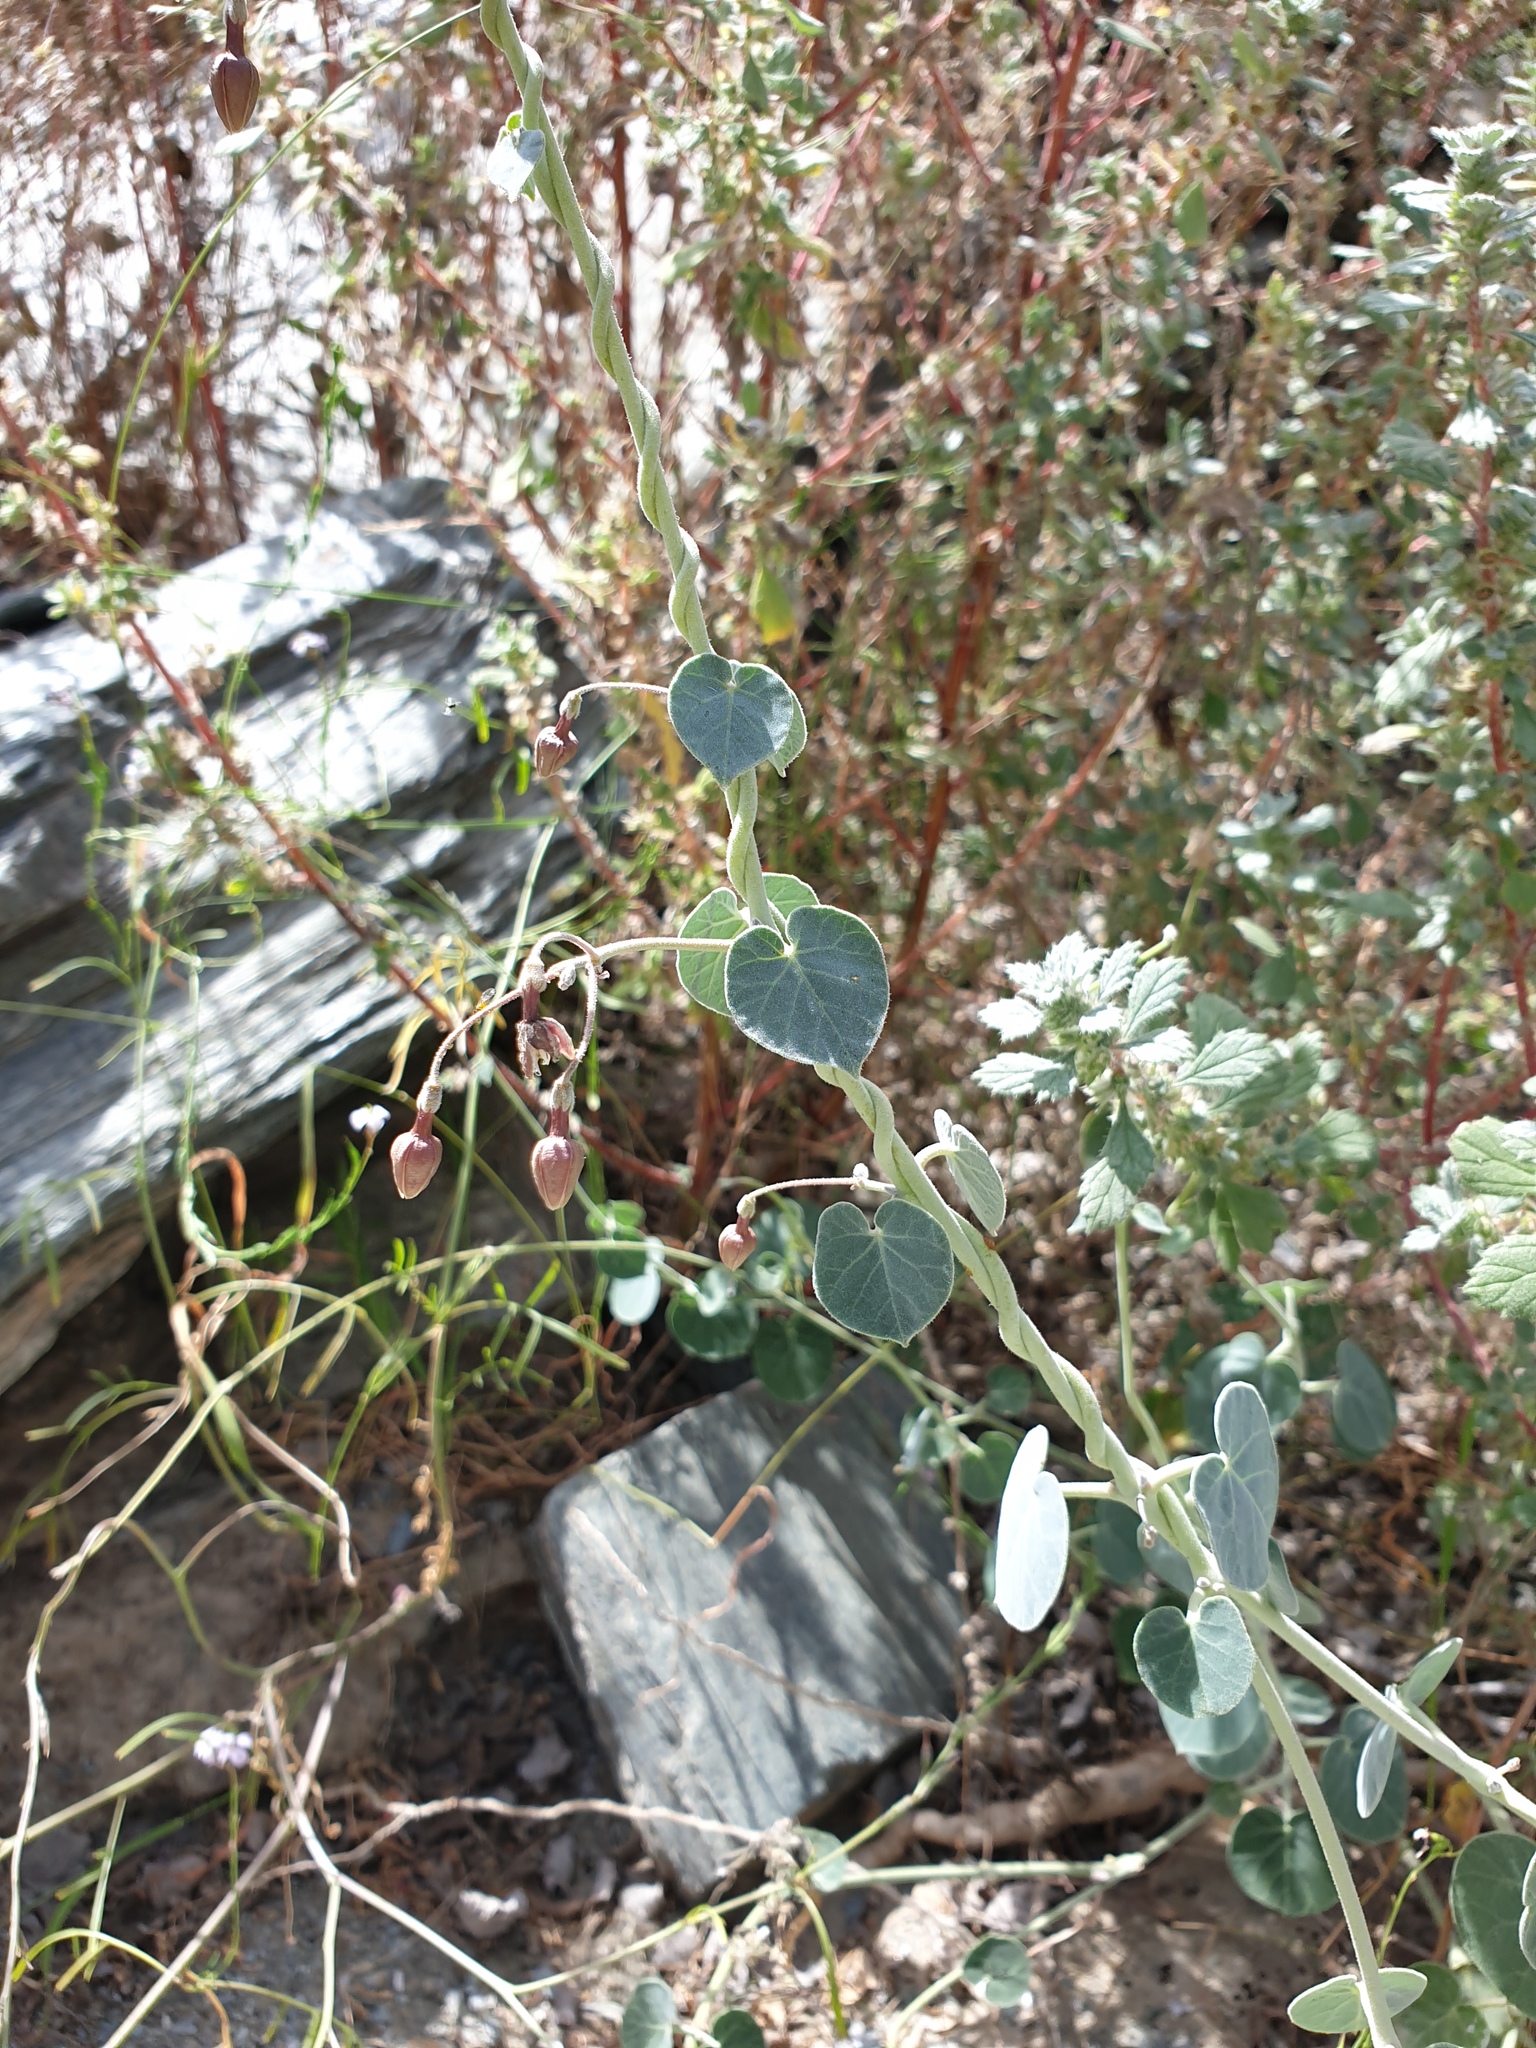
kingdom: Plantae
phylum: Tracheophyta
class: Magnoliopsida
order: Gentianales
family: Apocynaceae
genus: Pergularia
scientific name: Pergularia tomentosa
